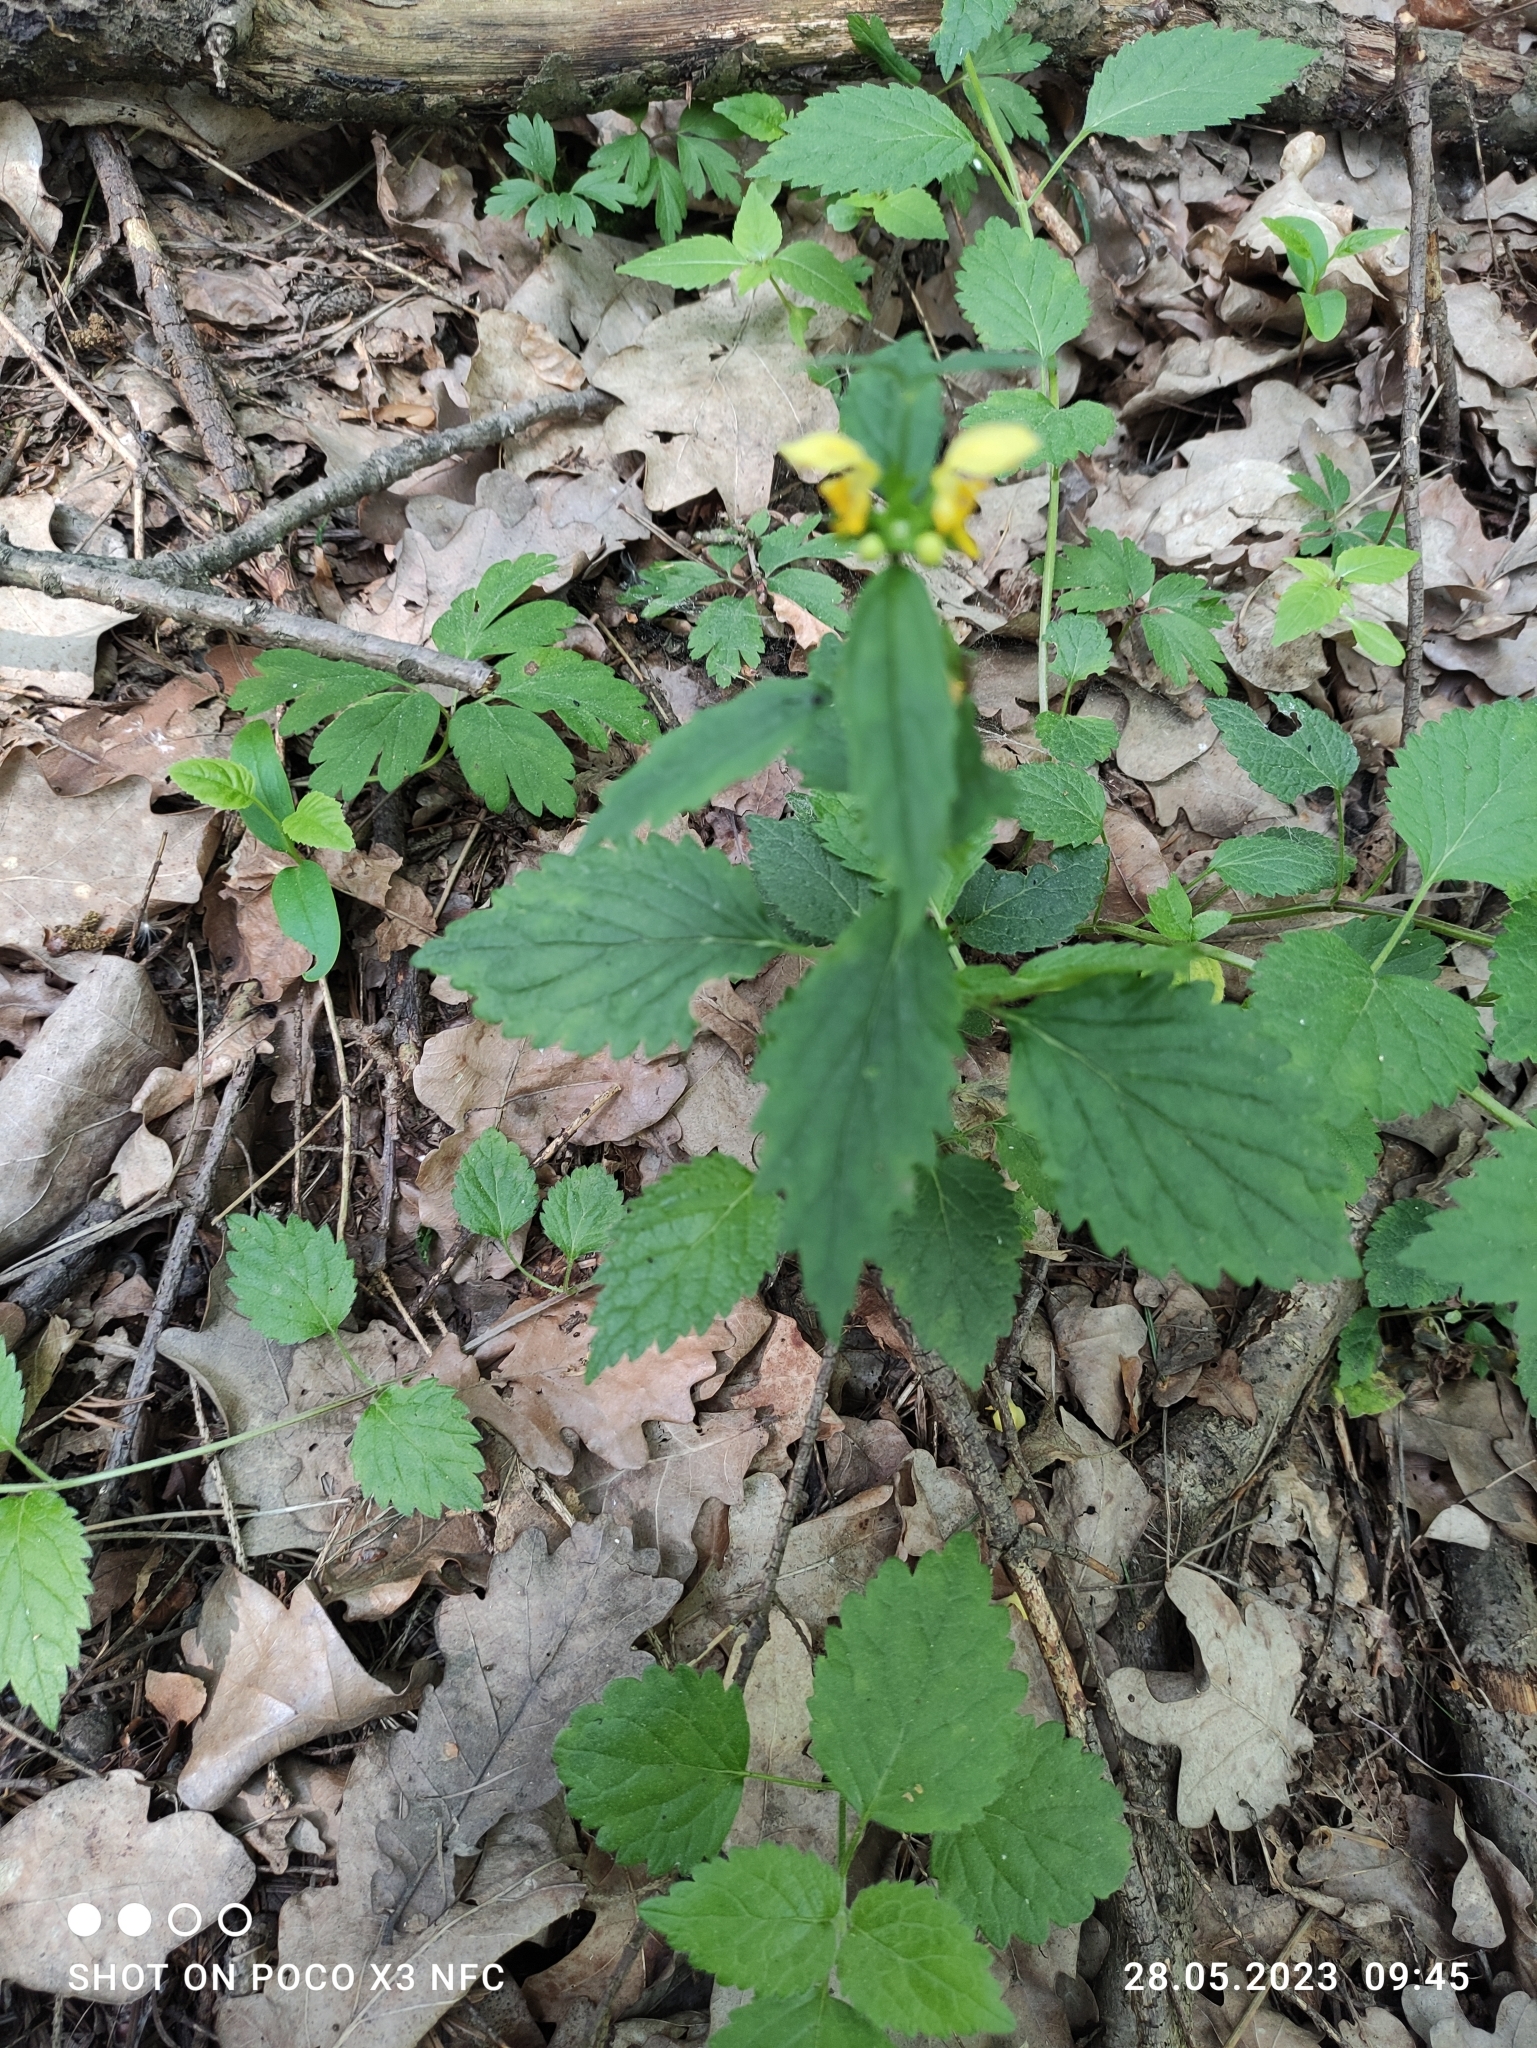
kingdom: Plantae
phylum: Tracheophyta
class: Magnoliopsida
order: Lamiales
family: Lamiaceae
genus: Lamium
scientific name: Lamium galeobdolon
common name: Yellow archangel
